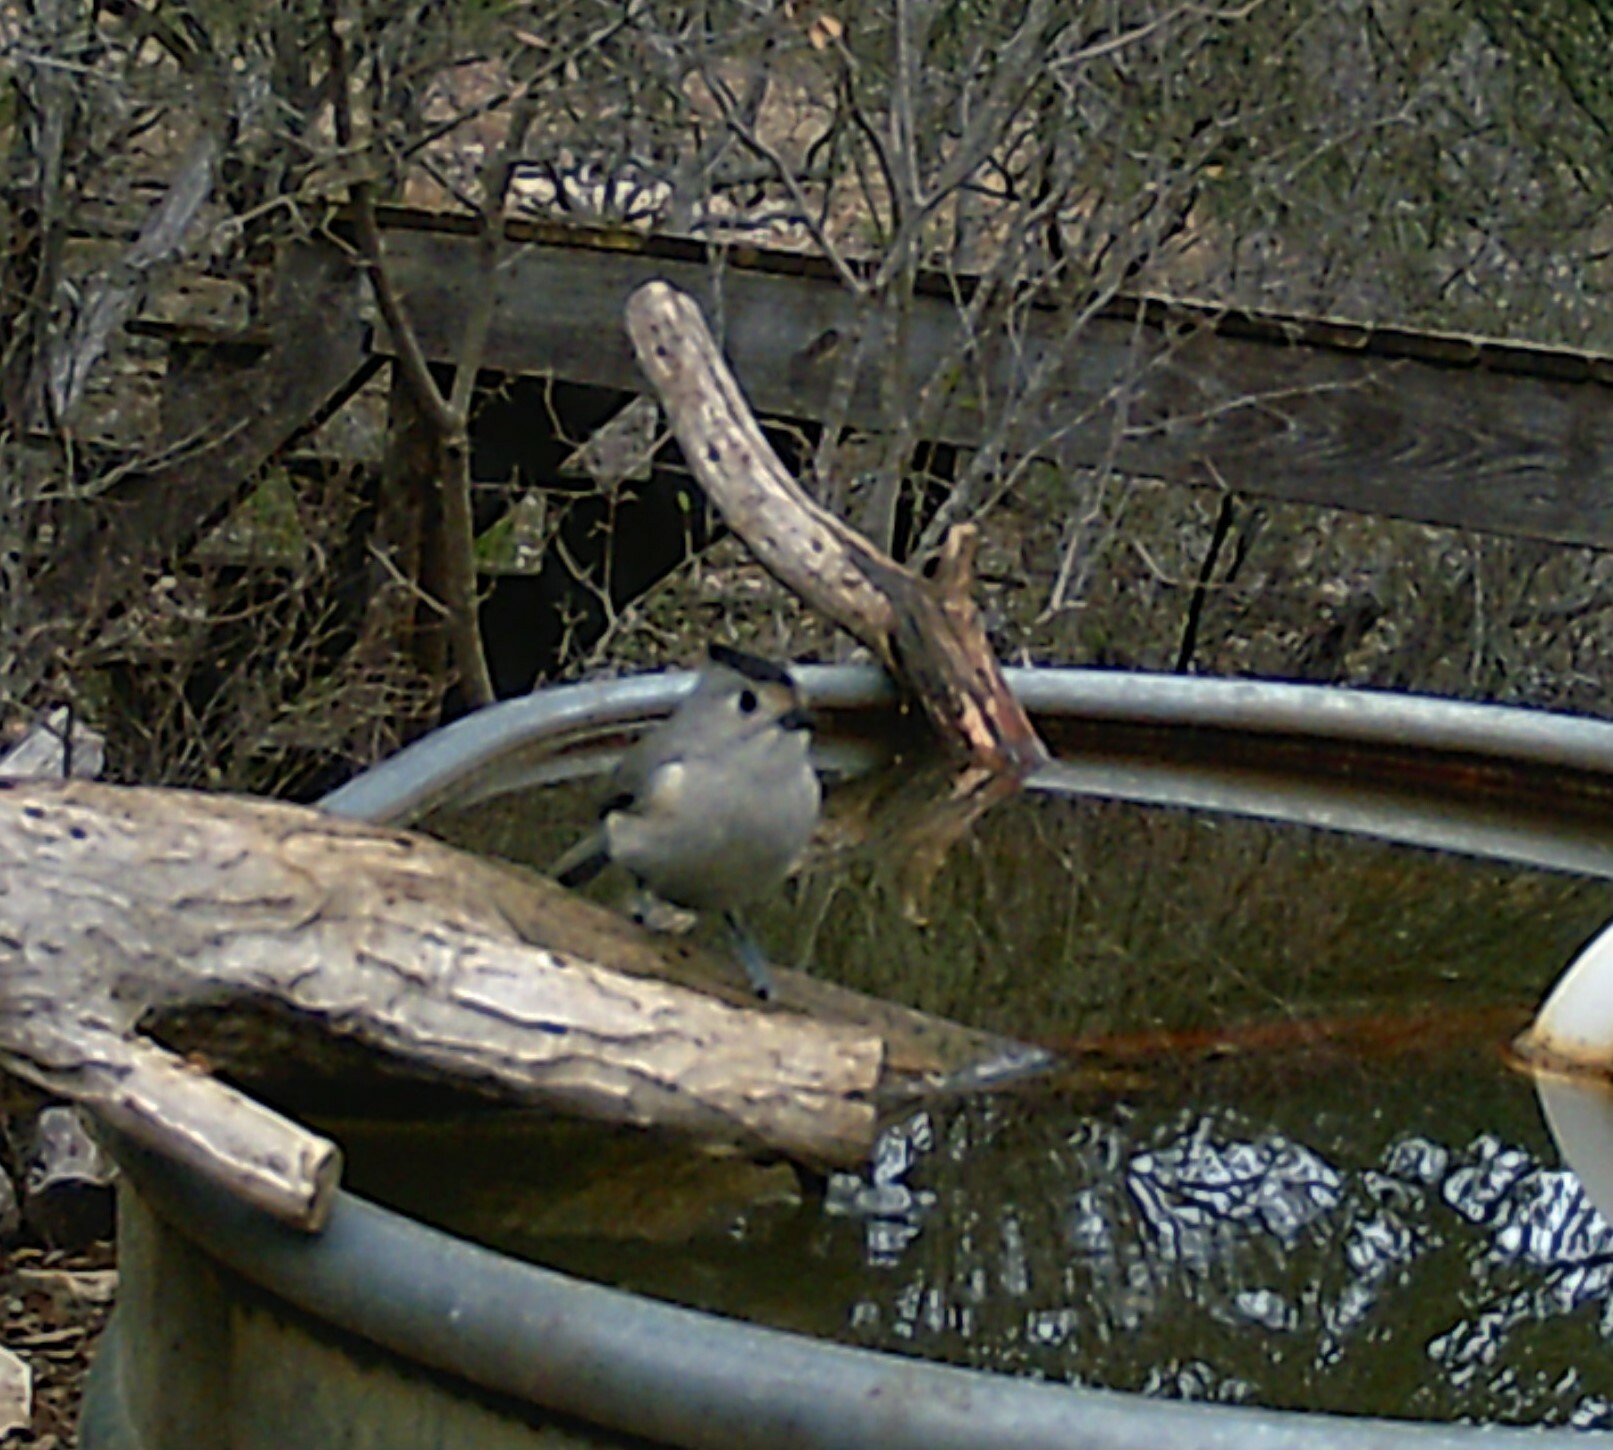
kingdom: Animalia
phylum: Chordata
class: Aves
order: Passeriformes
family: Paridae
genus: Baeolophus
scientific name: Baeolophus atricristatus
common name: Black-crested titmouse
